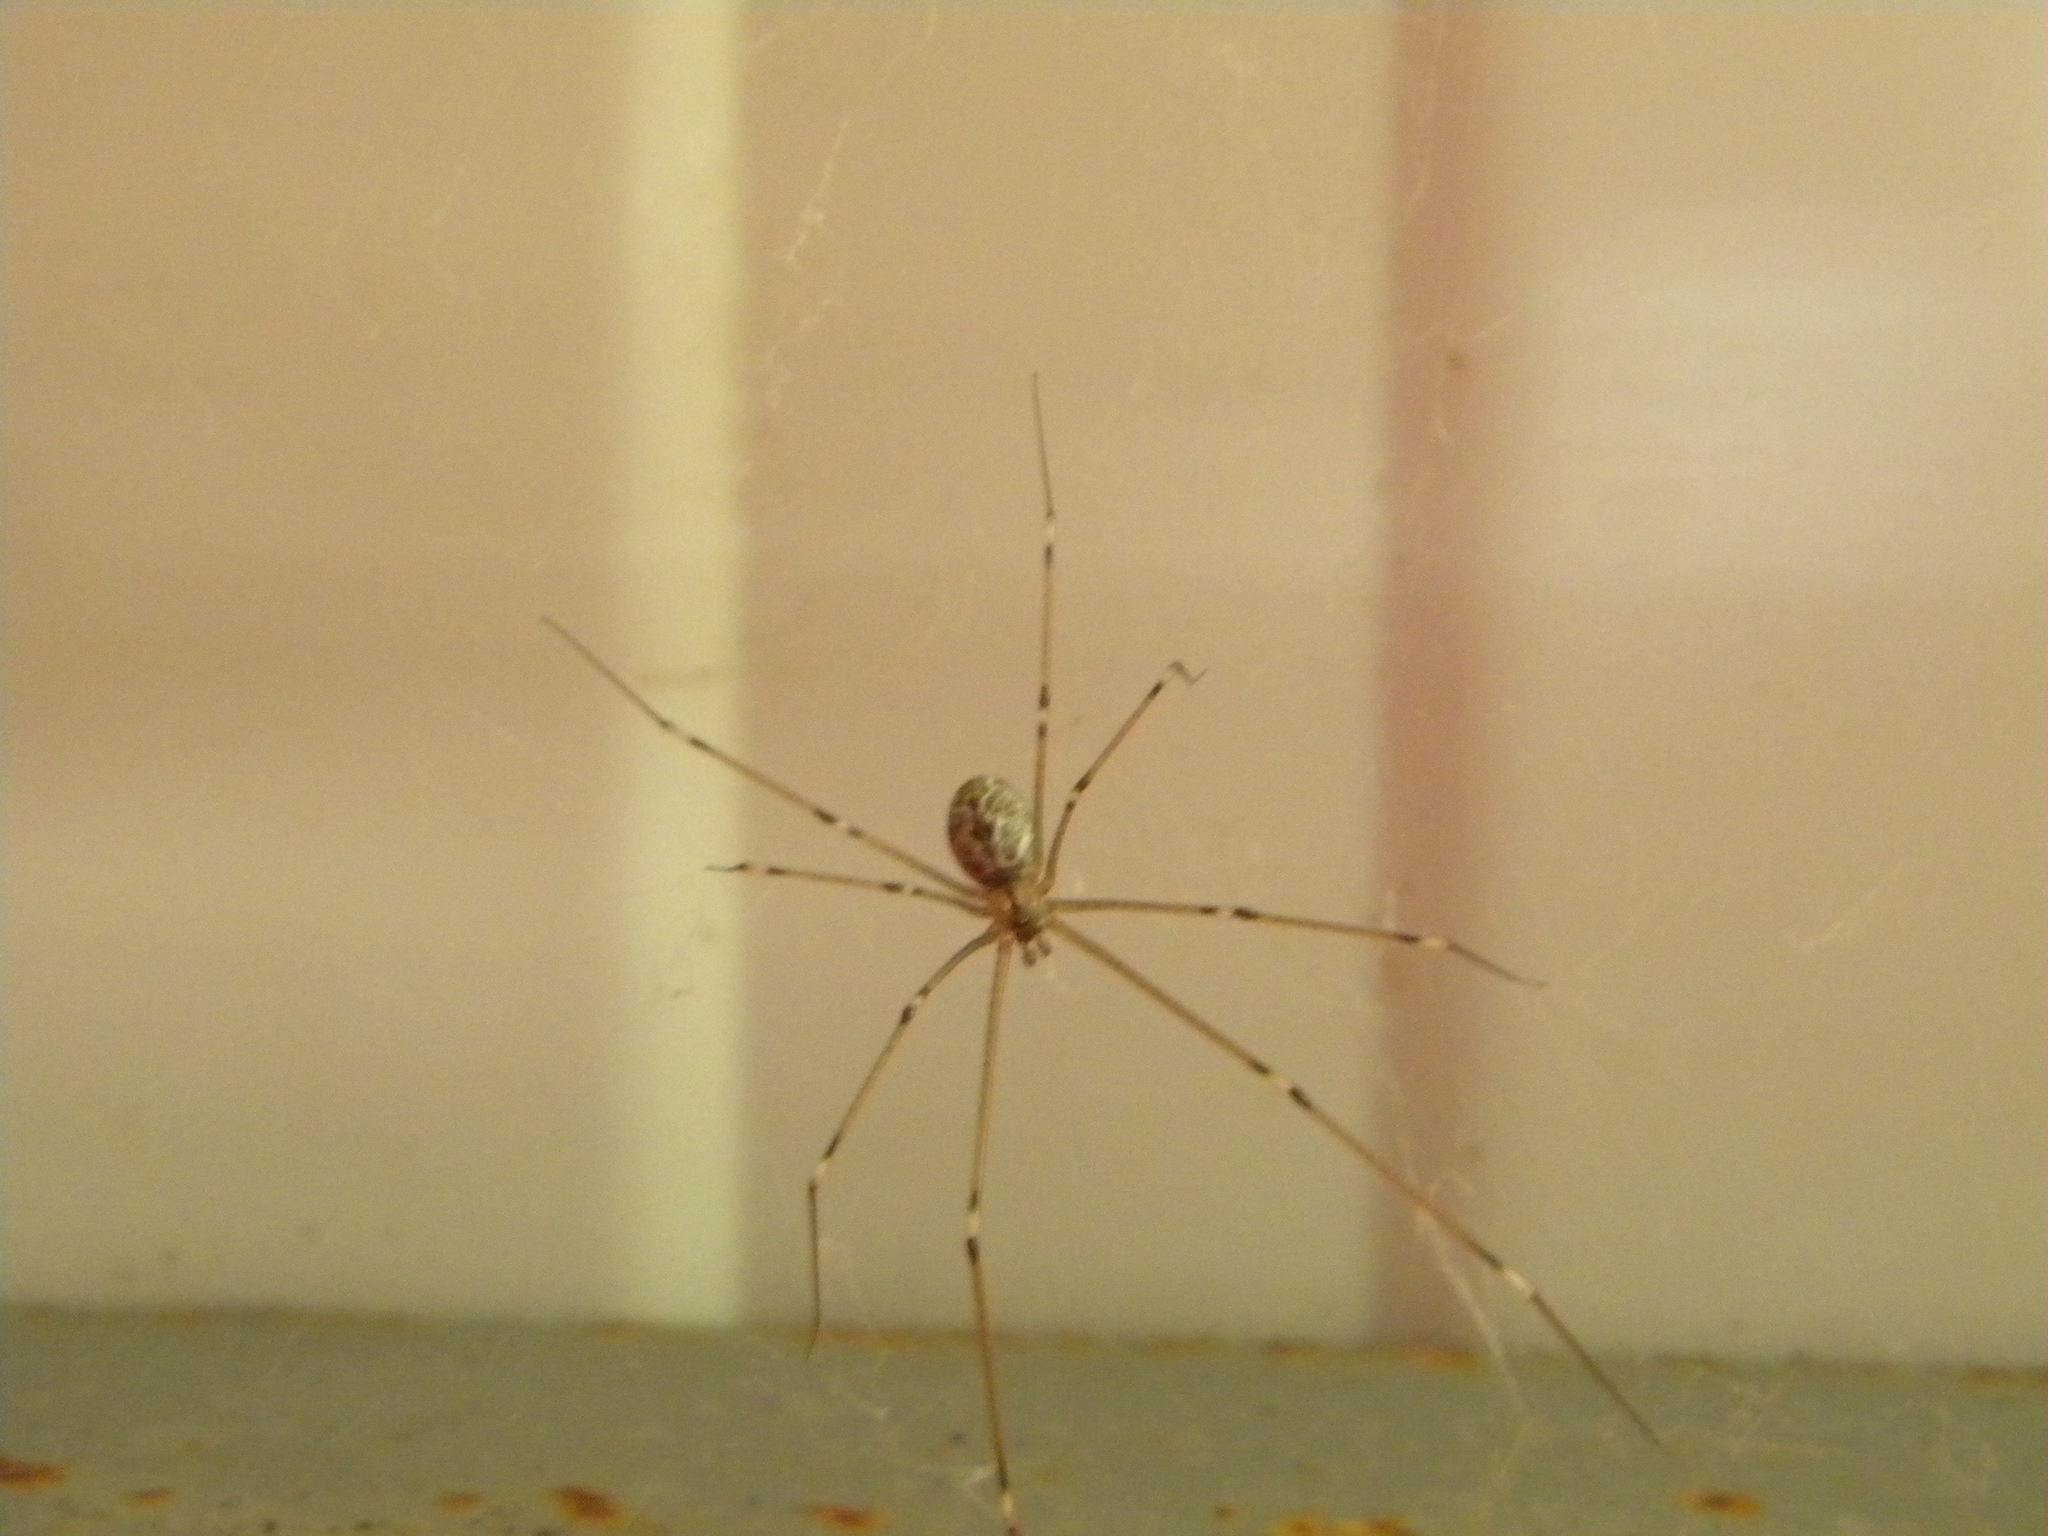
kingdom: Animalia
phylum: Arthropoda
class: Arachnida
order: Araneae
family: Pholcidae
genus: Holocnemus
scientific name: Holocnemus pluchei
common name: Marbled cellar spider
